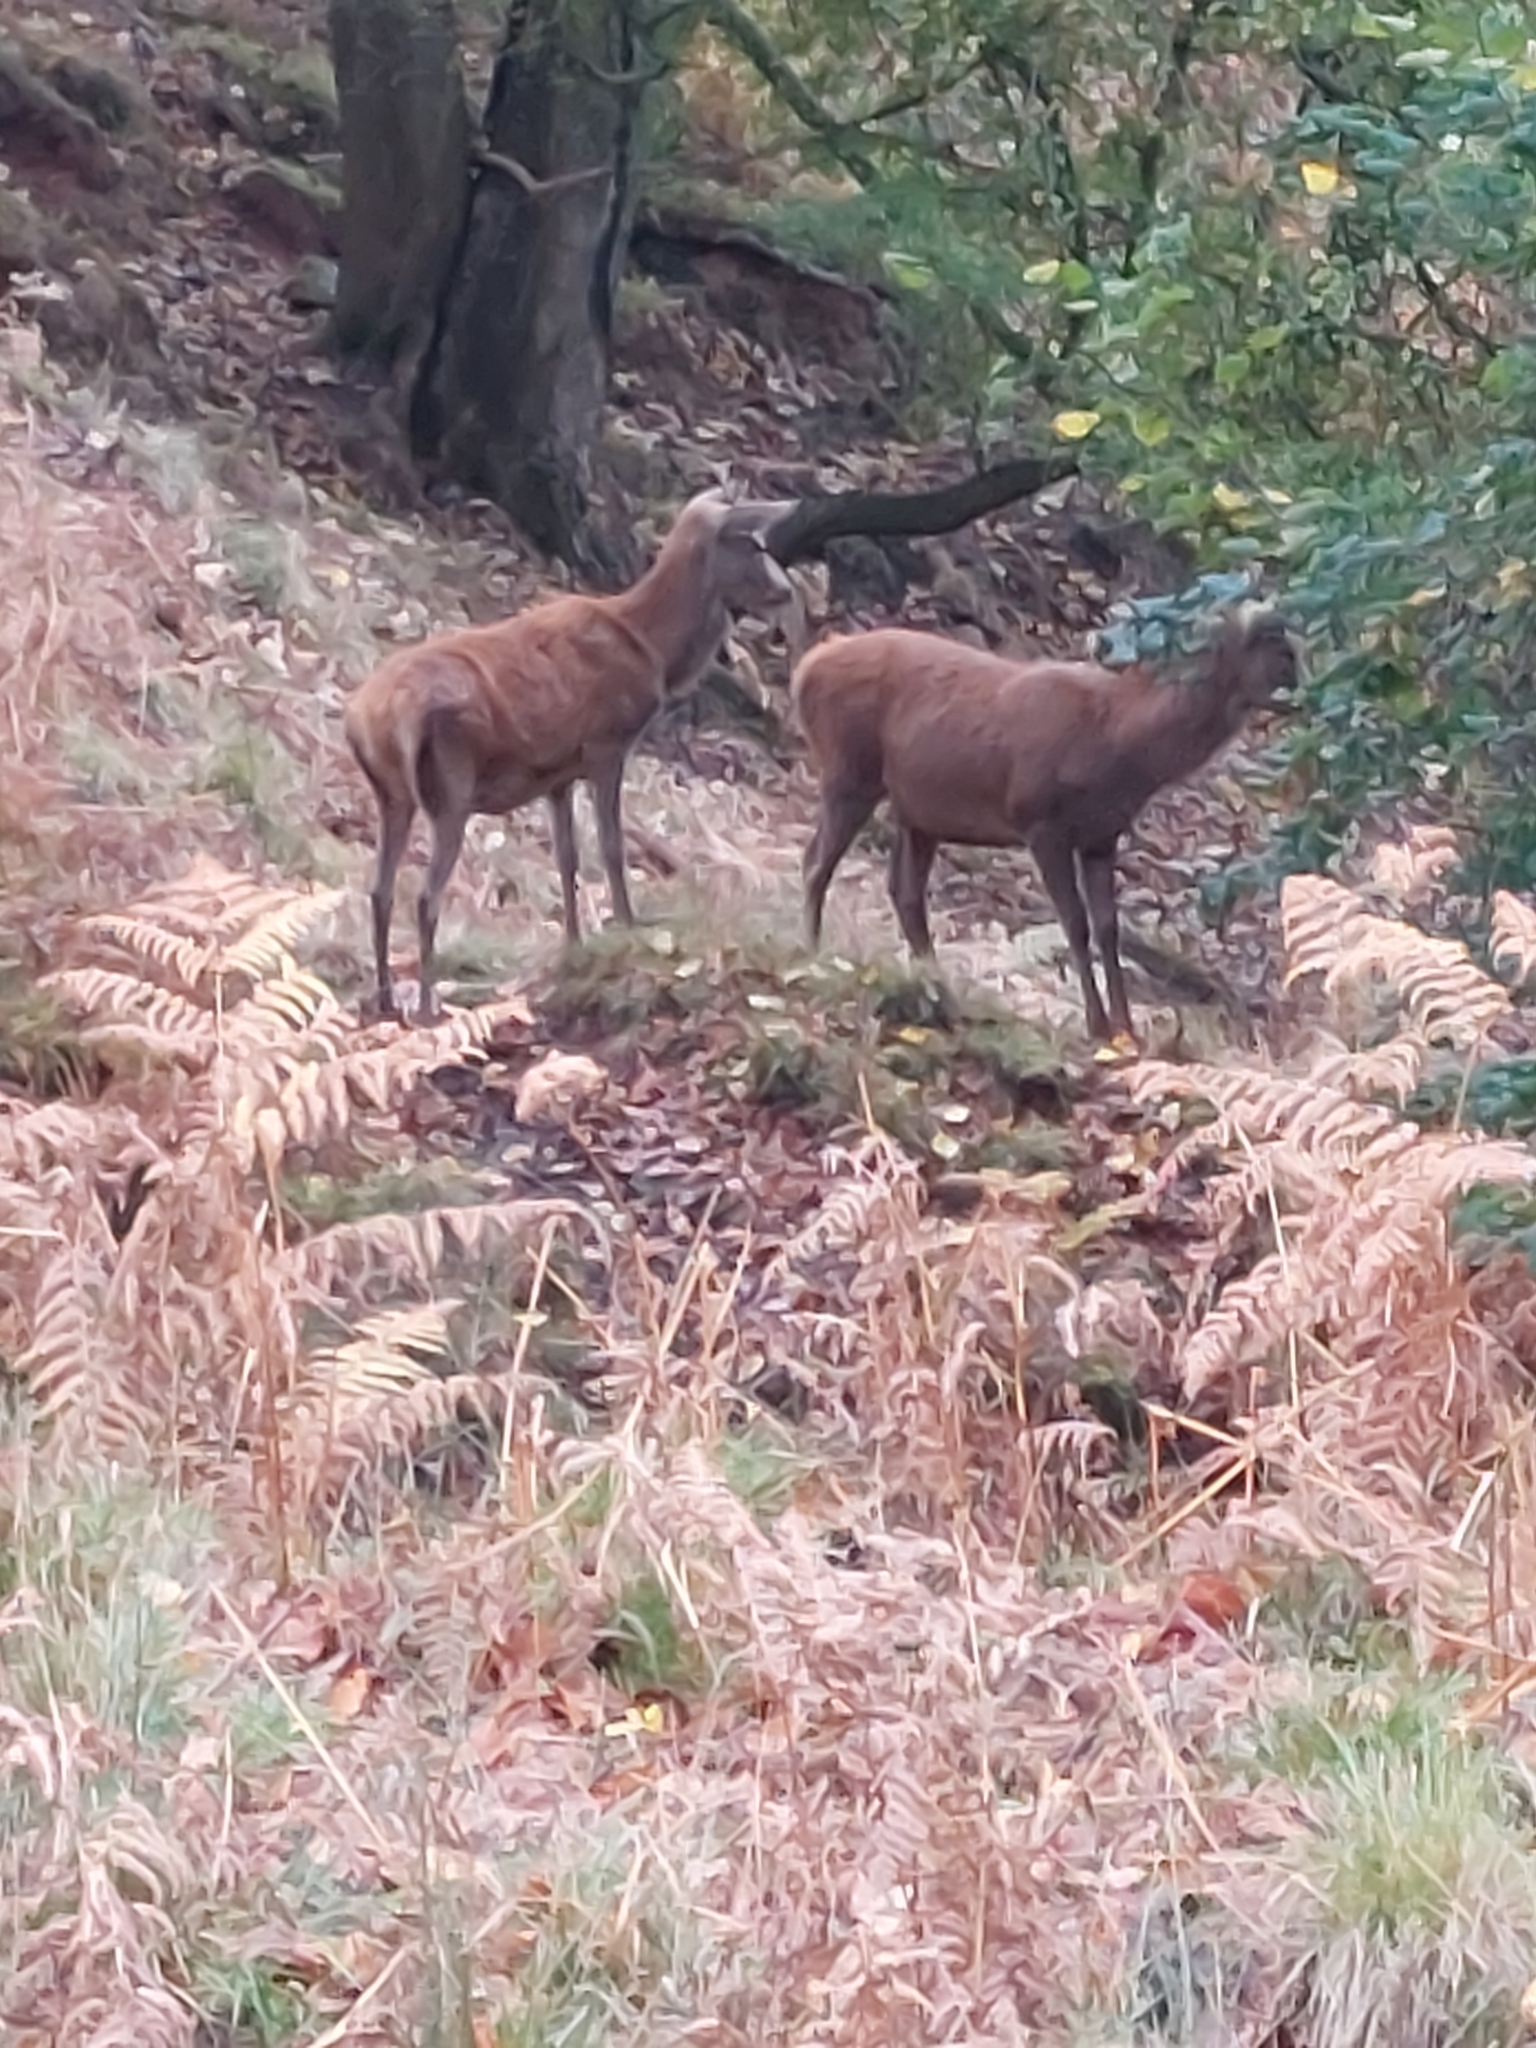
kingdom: Animalia
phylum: Chordata
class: Mammalia
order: Artiodactyla
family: Cervidae
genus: Cervus
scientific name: Cervus elaphus
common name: Red deer
